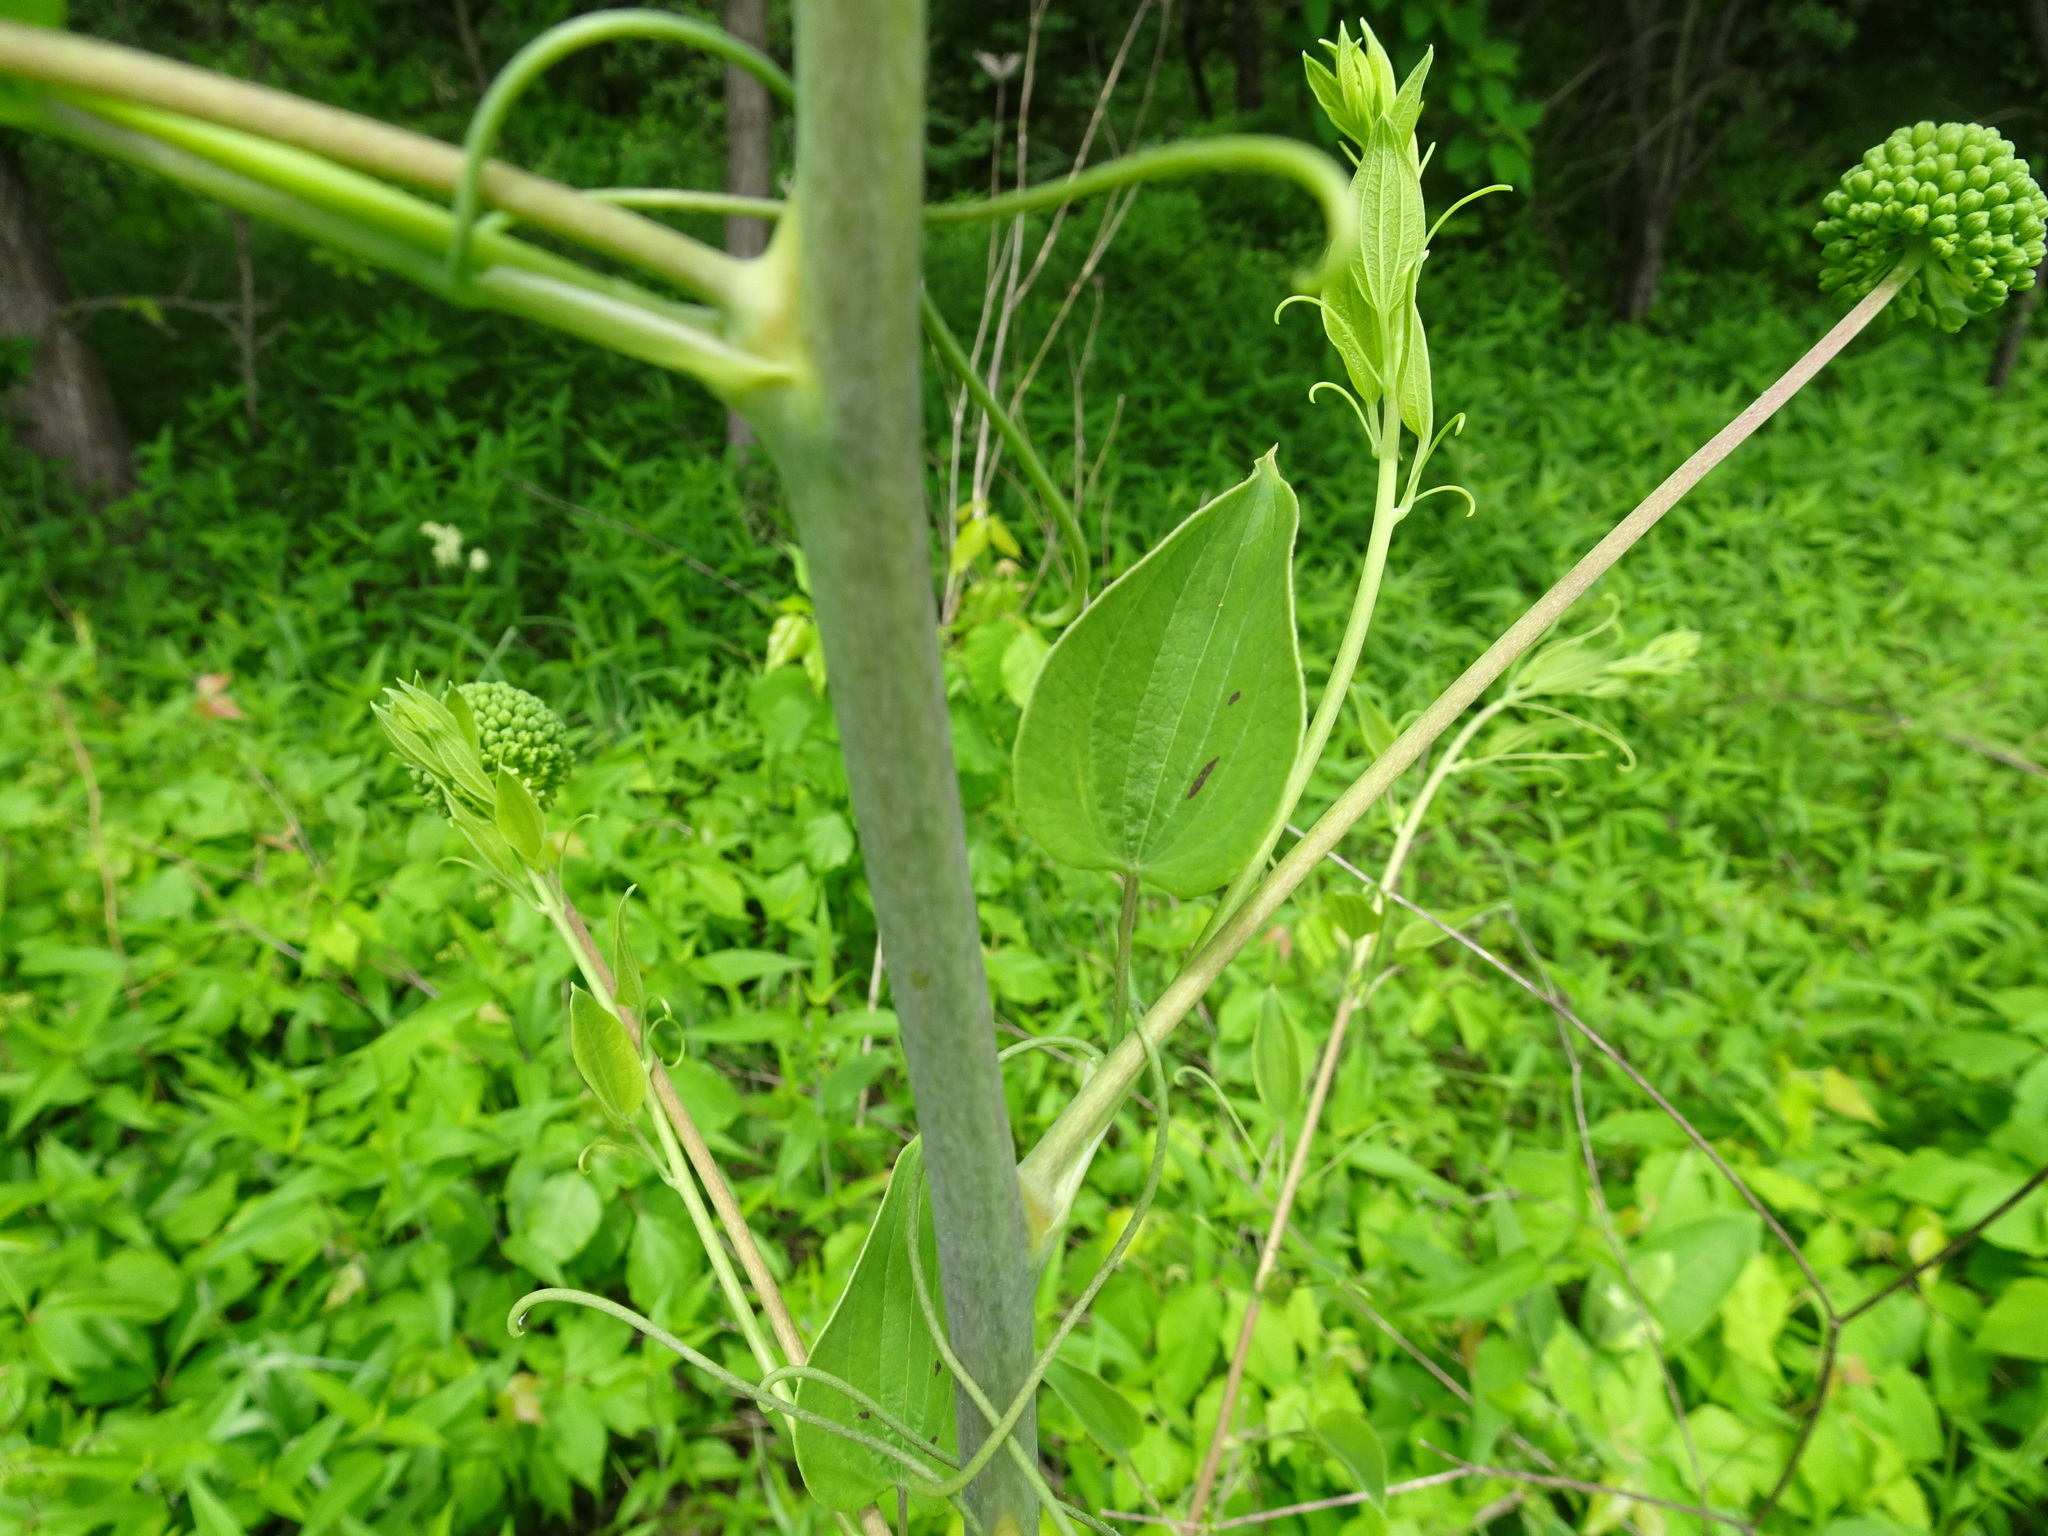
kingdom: Plantae
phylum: Tracheophyta
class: Liliopsida
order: Liliales
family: Smilacaceae
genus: Smilax
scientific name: Smilax lasioneura
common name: Blue ridge carrionflower
